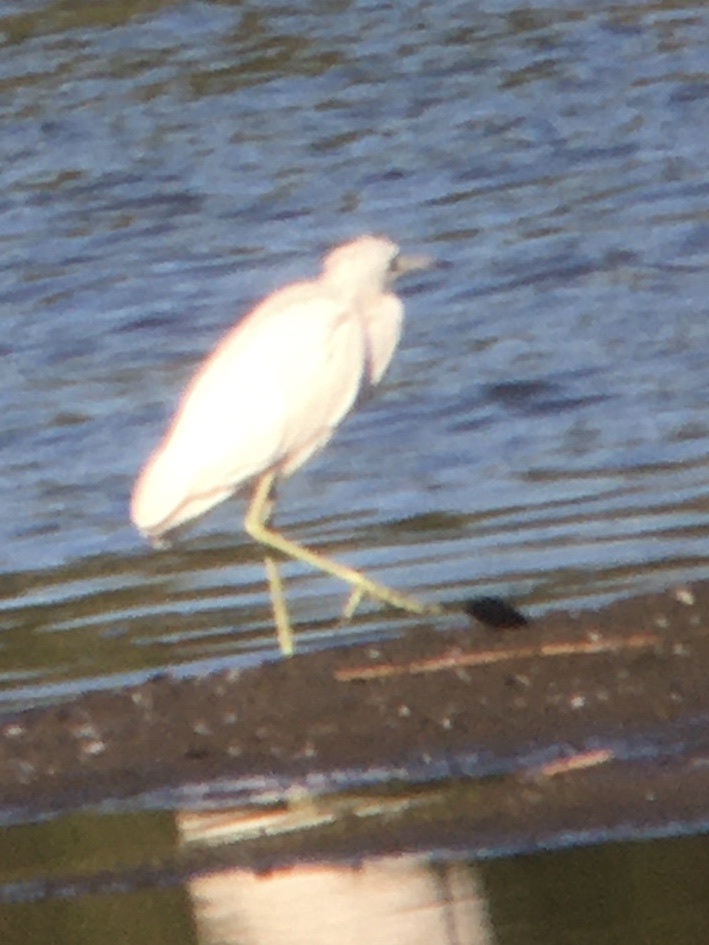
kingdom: Animalia
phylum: Chordata
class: Aves
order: Pelecaniformes
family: Ardeidae
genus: Egretta
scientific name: Egretta caerulea
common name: Little blue heron
